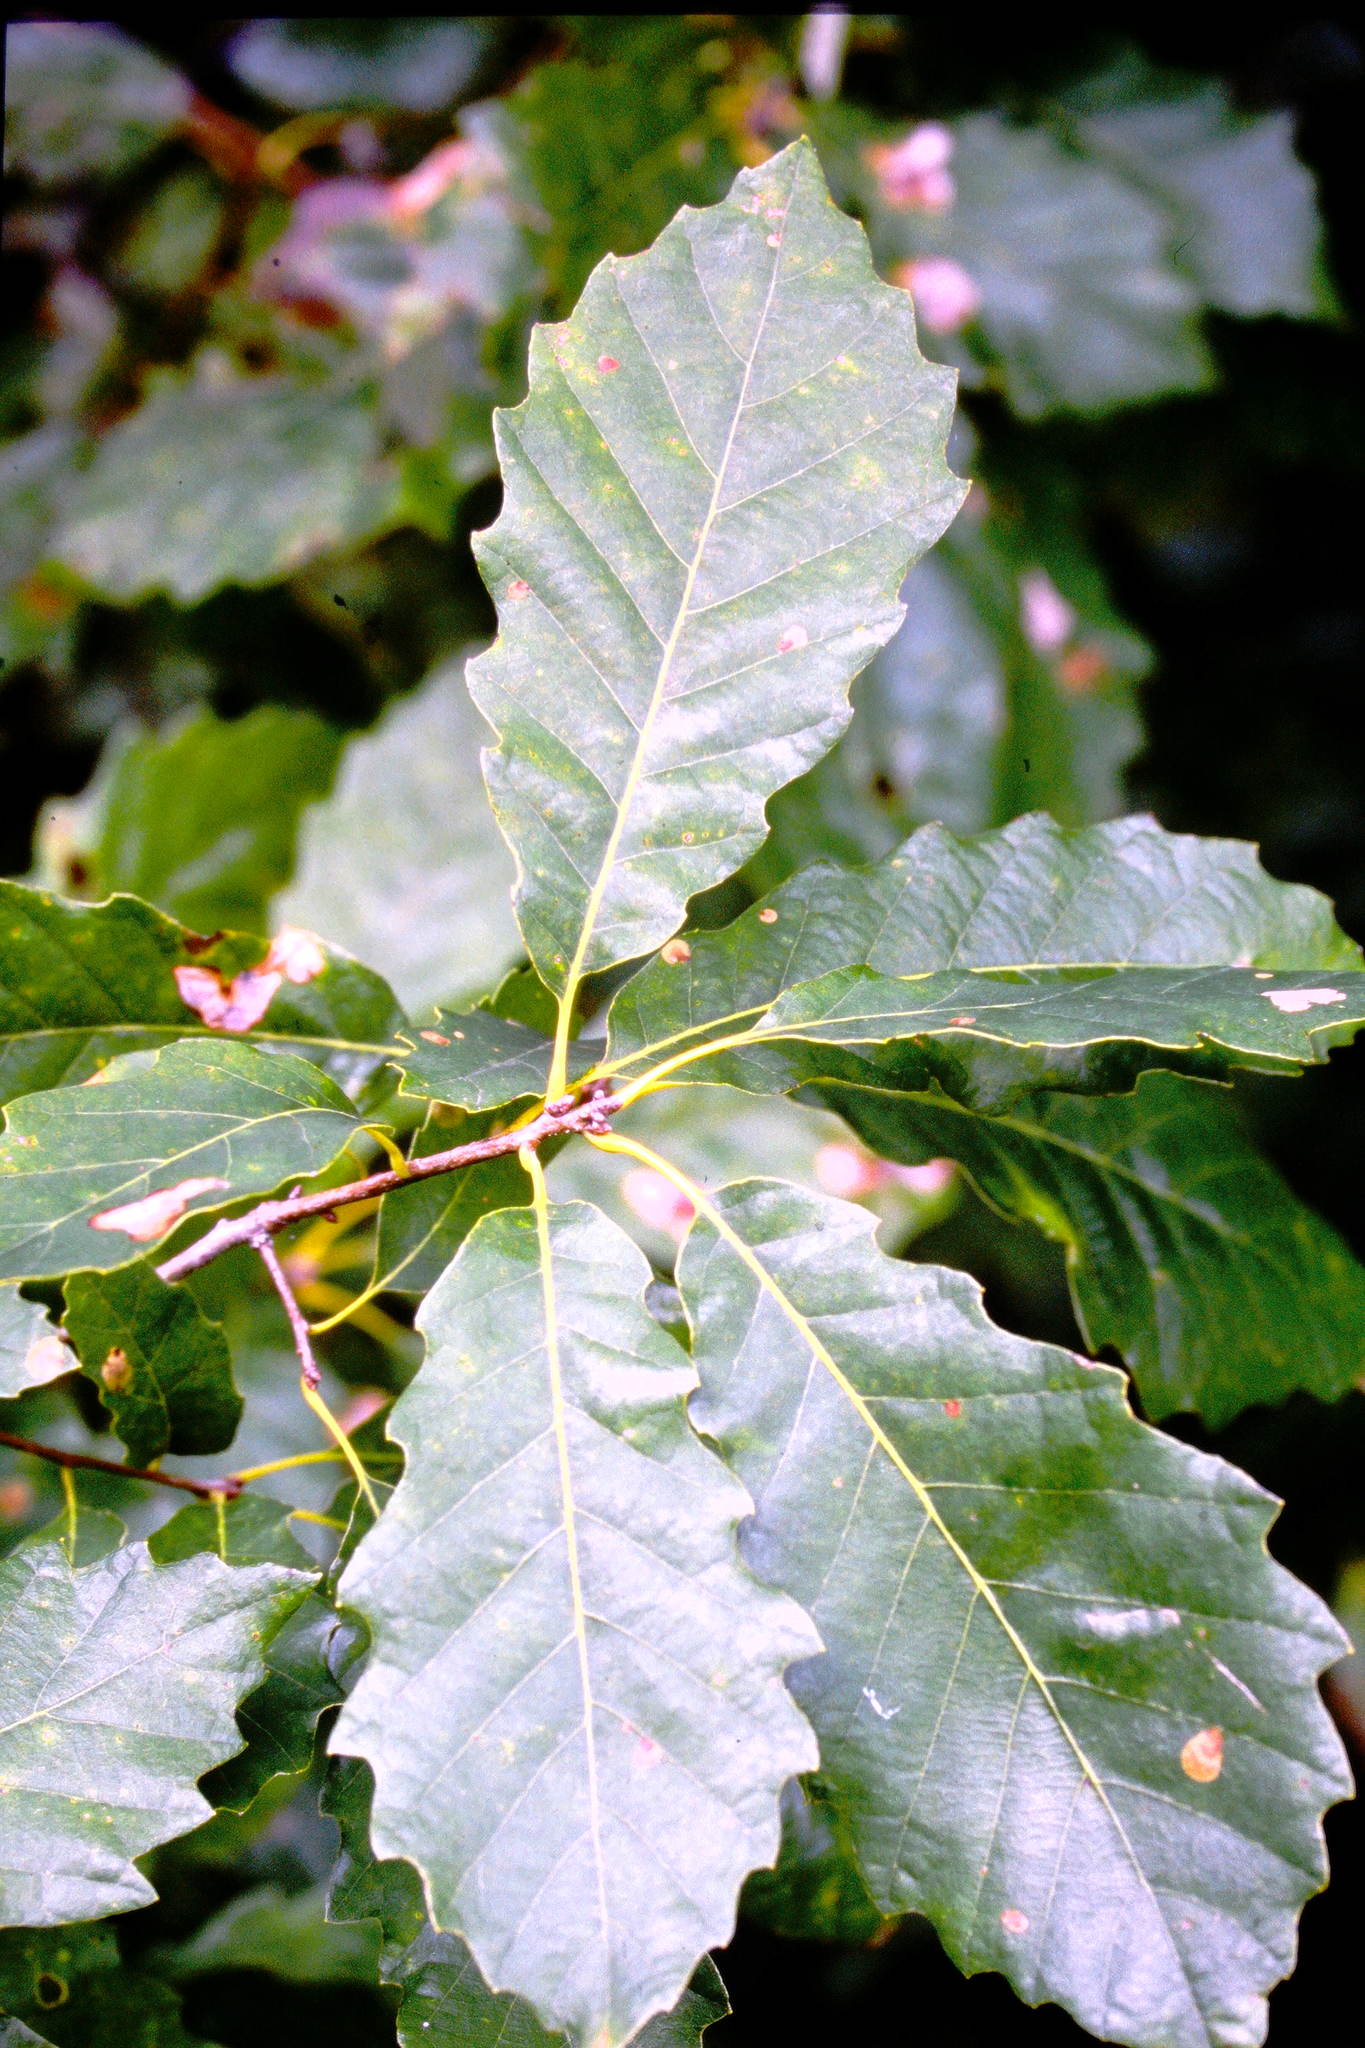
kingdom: Plantae
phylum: Tracheophyta
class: Magnoliopsida
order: Fagales
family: Fagaceae
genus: Quercus
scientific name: Quercus prinoides
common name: Dwarf chinkapin oak
